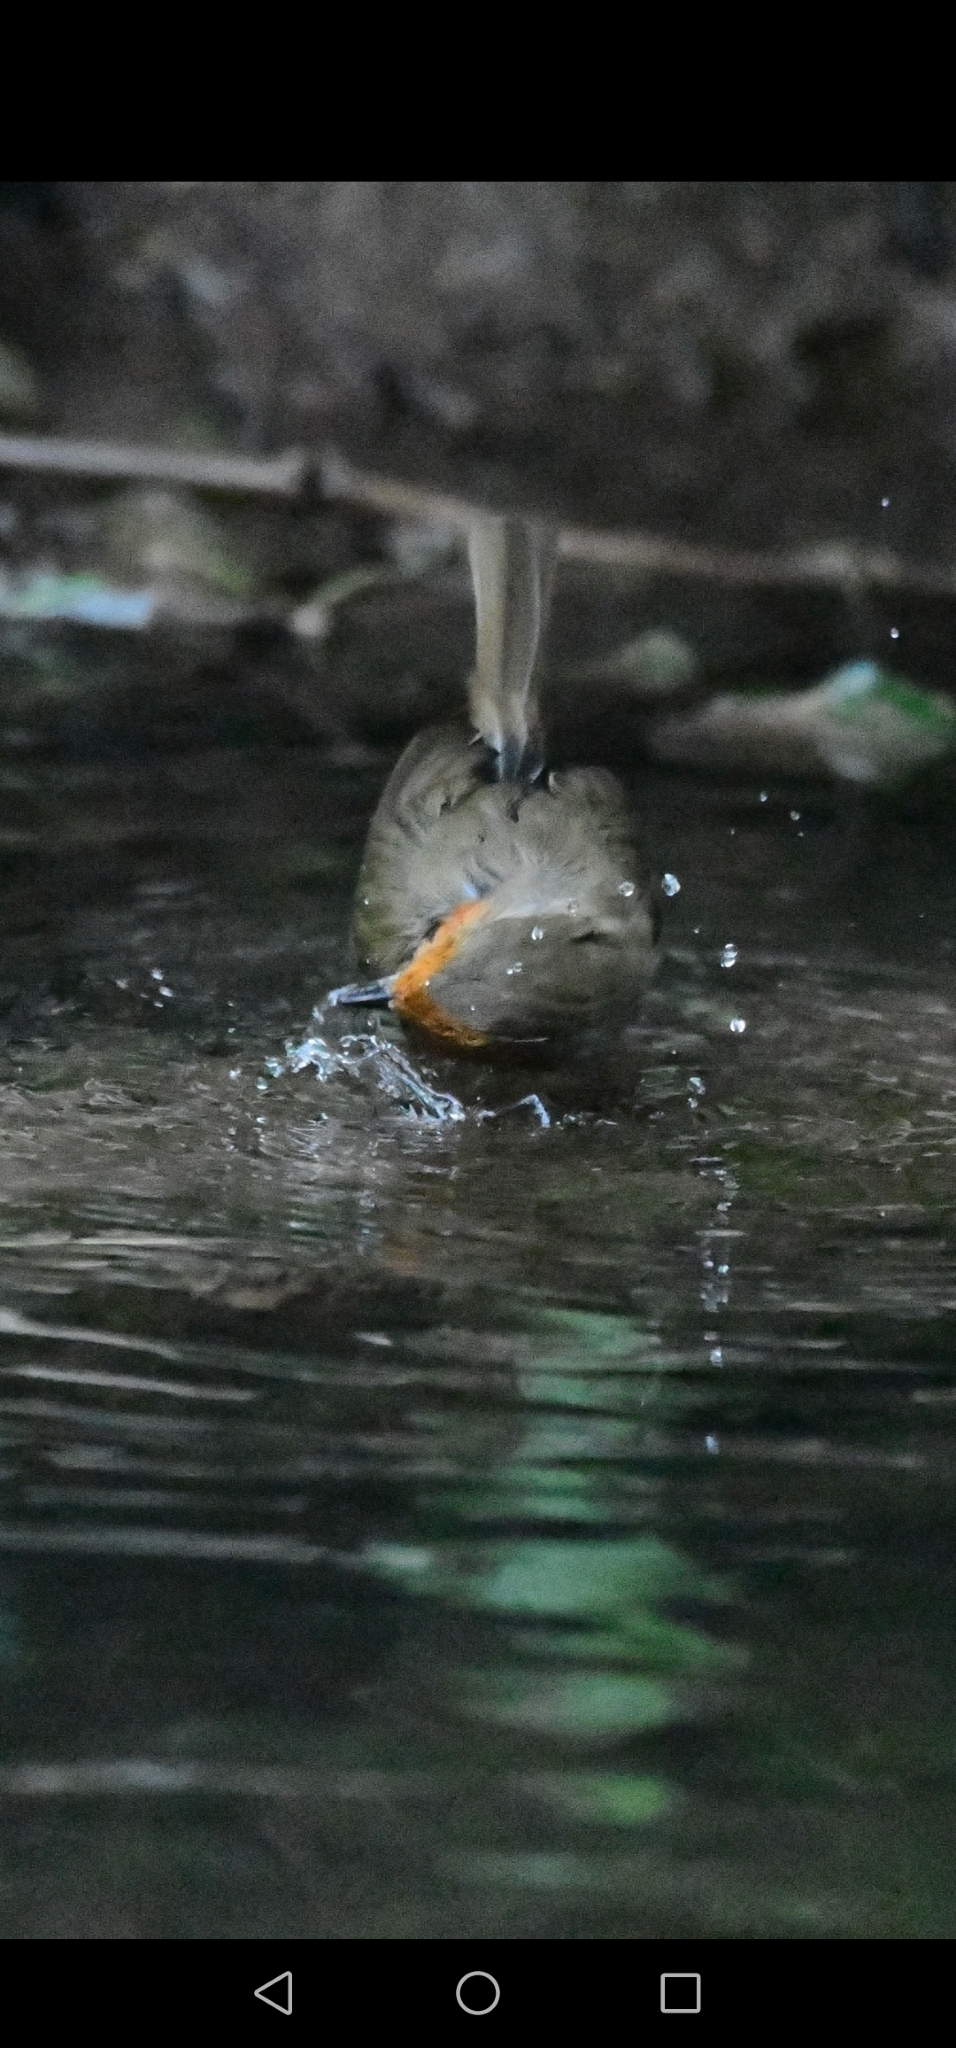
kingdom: Animalia
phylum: Chordata
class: Aves
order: Passeriformes
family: Muscicapidae
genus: Erithacus
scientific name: Erithacus rubecula
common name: European robin
